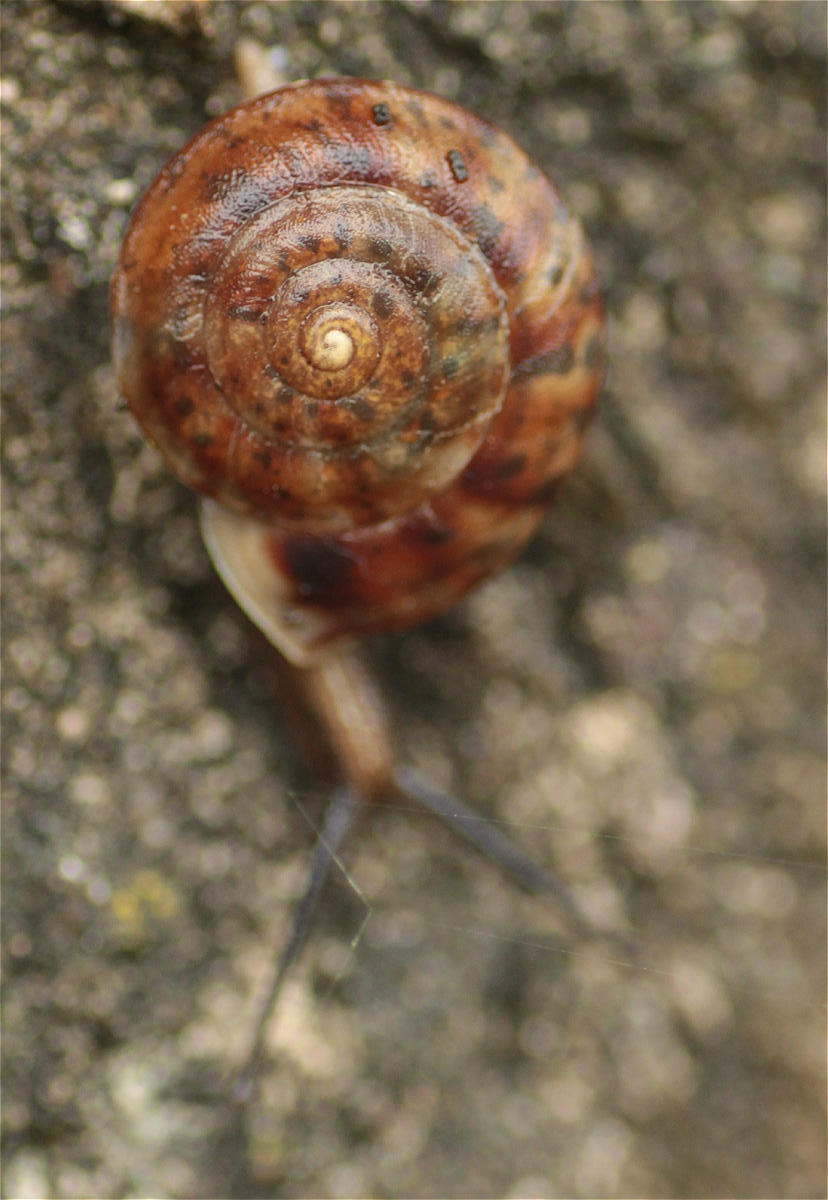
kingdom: Animalia
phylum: Mollusca
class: Gastropoda
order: Stylommatophora
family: Helicidae
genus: Helicigona
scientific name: Helicigona lapicida
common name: Lapidary snail
